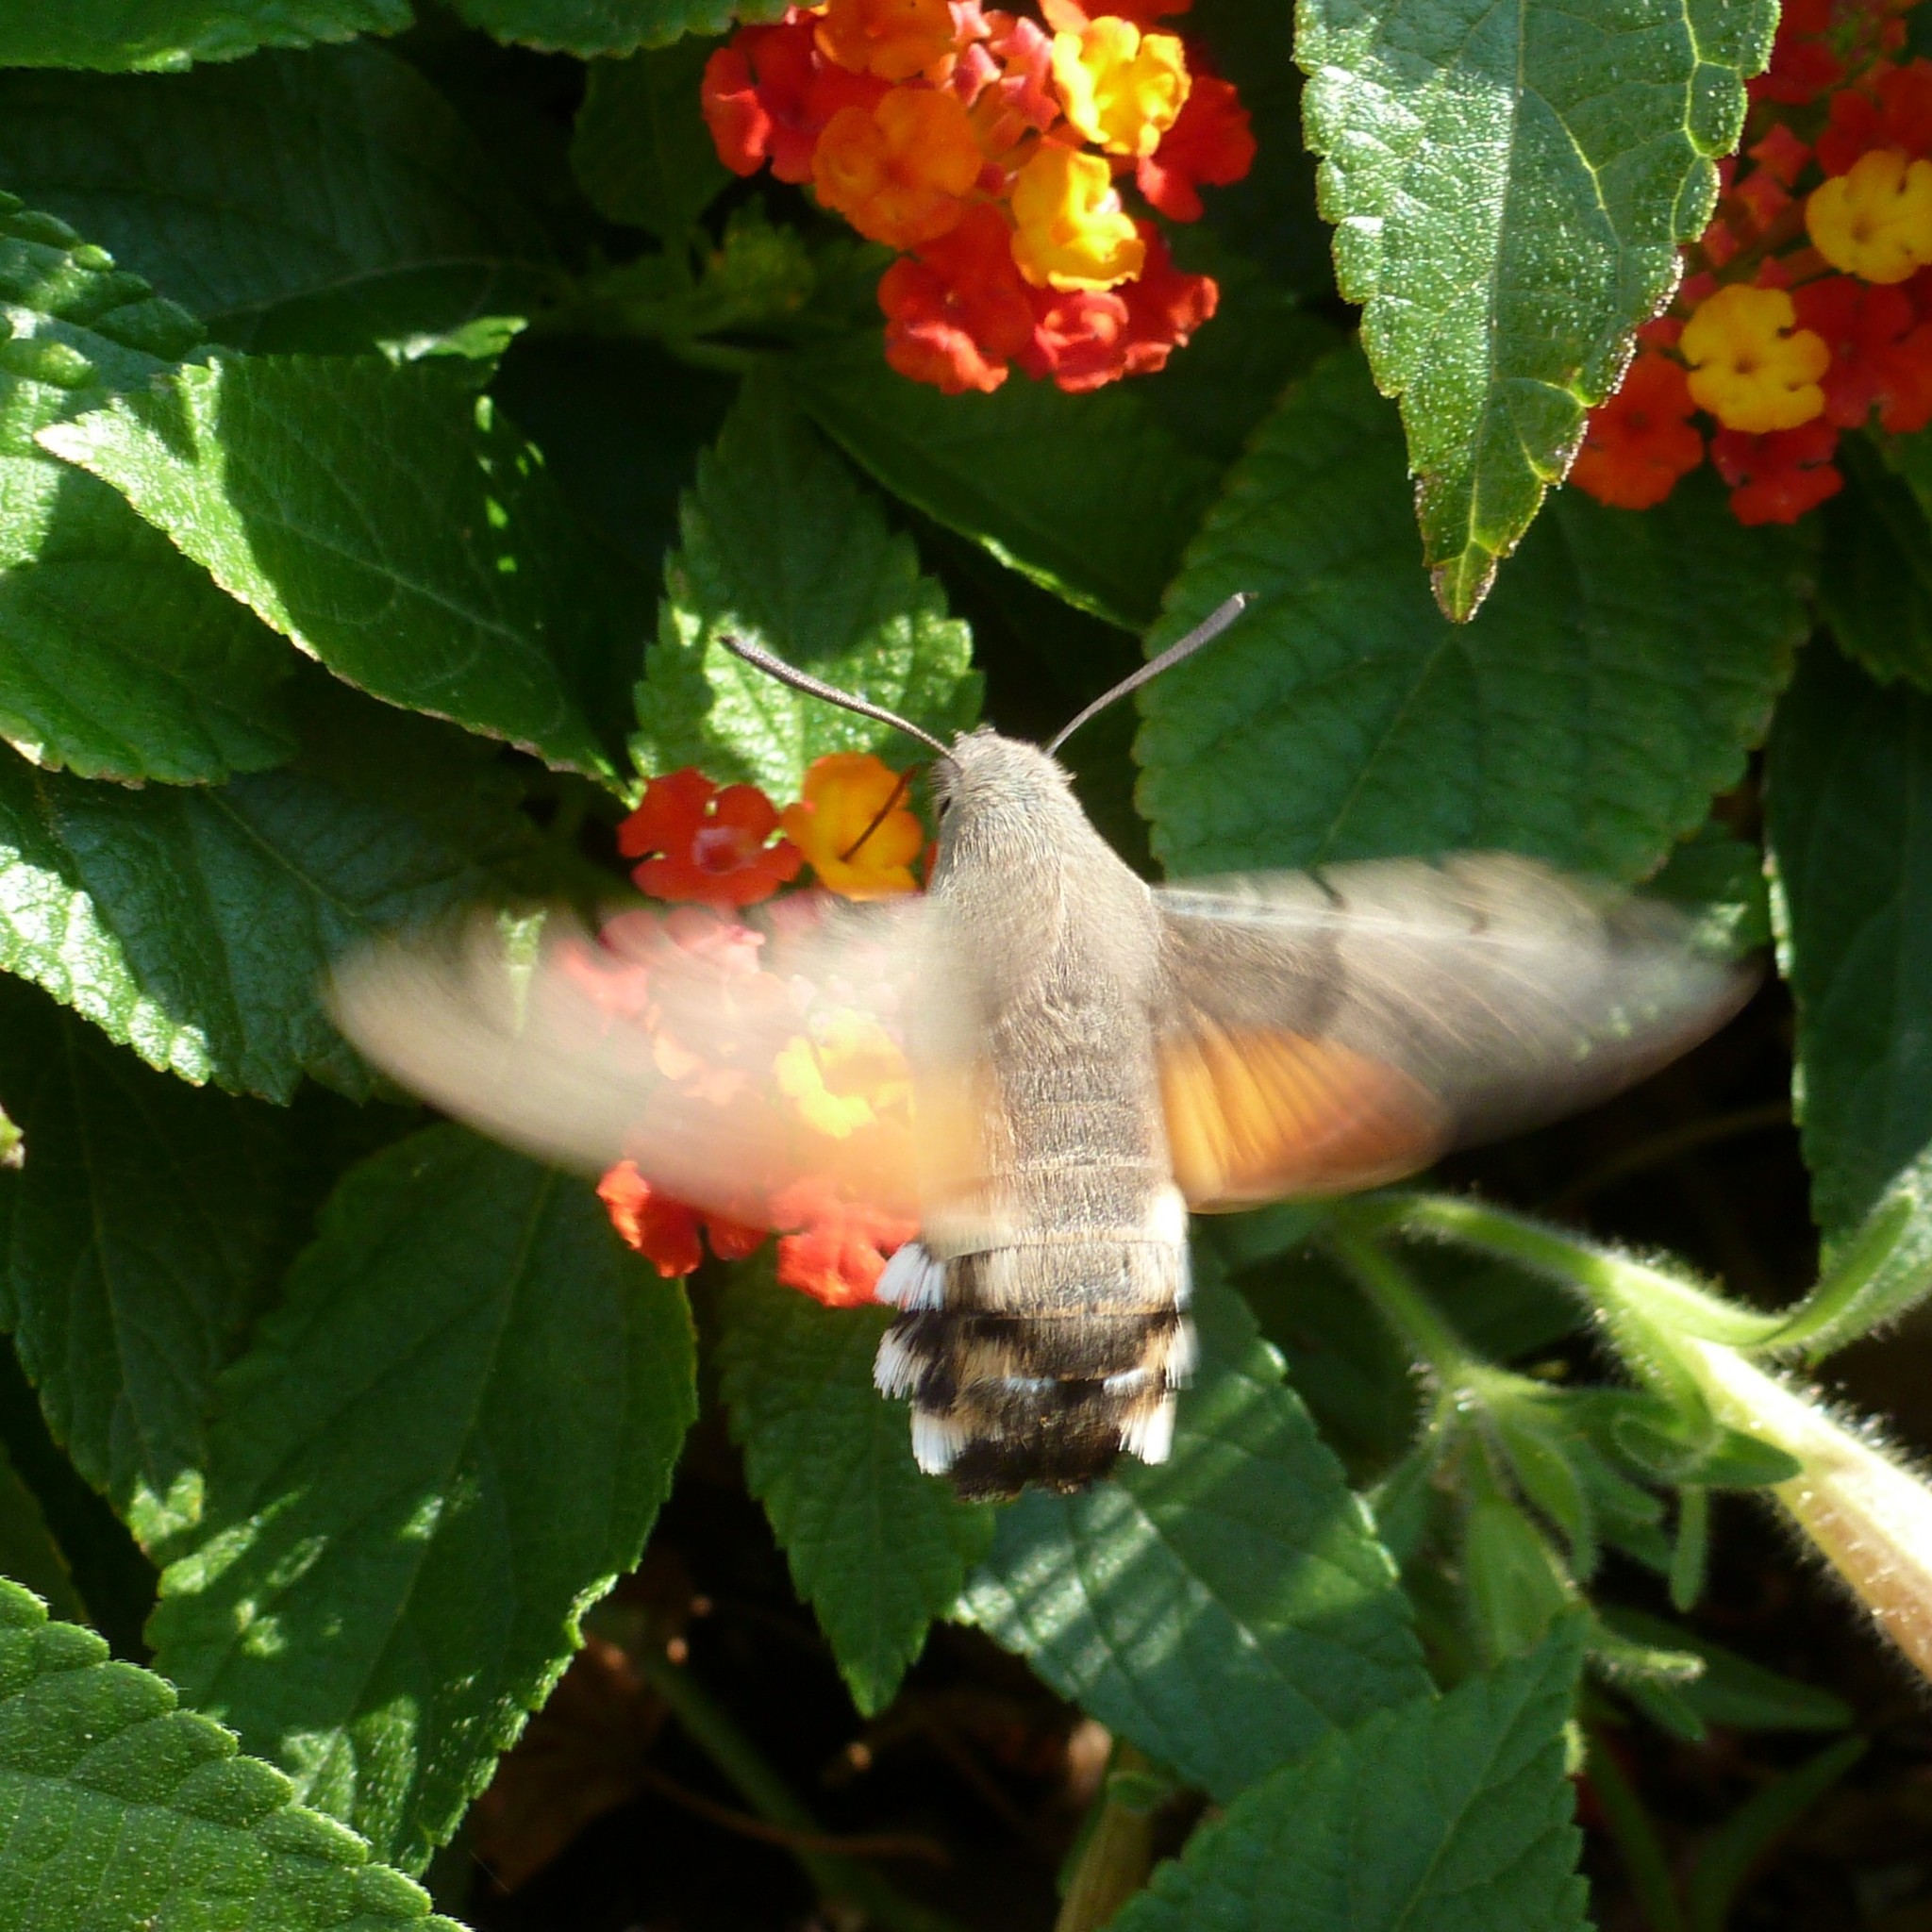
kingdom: Animalia
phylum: Arthropoda
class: Insecta
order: Lepidoptera
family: Sphingidae
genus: Macroglossum
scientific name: Macroglossum stellatarum
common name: Humming-bird hawk-moth
